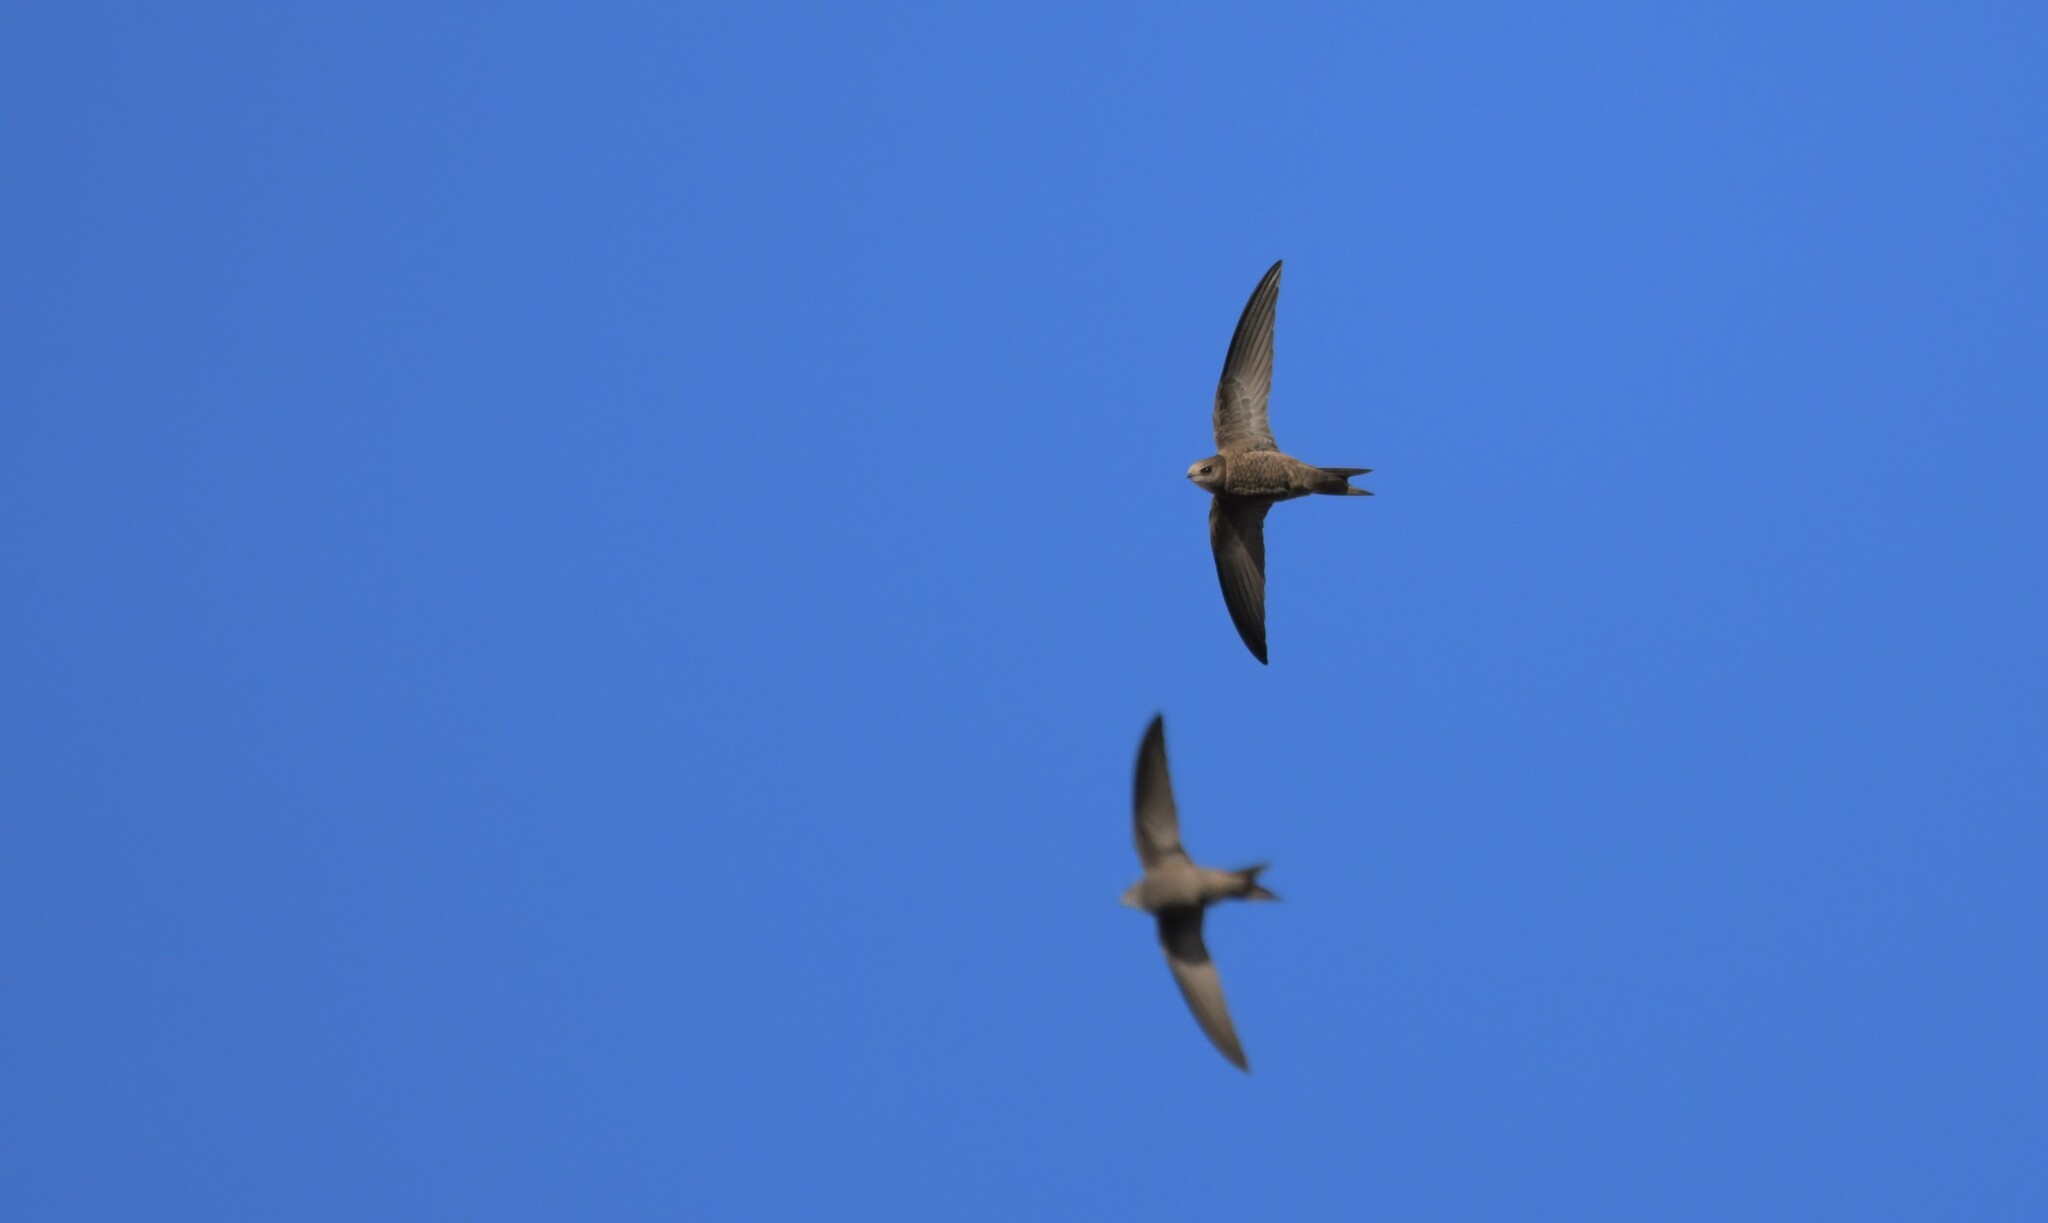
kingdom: Animalia
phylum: Chordata
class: Aves
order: Apodiformes
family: Apodidae
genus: Apus
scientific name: Apus pallidus
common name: Pallid swift
